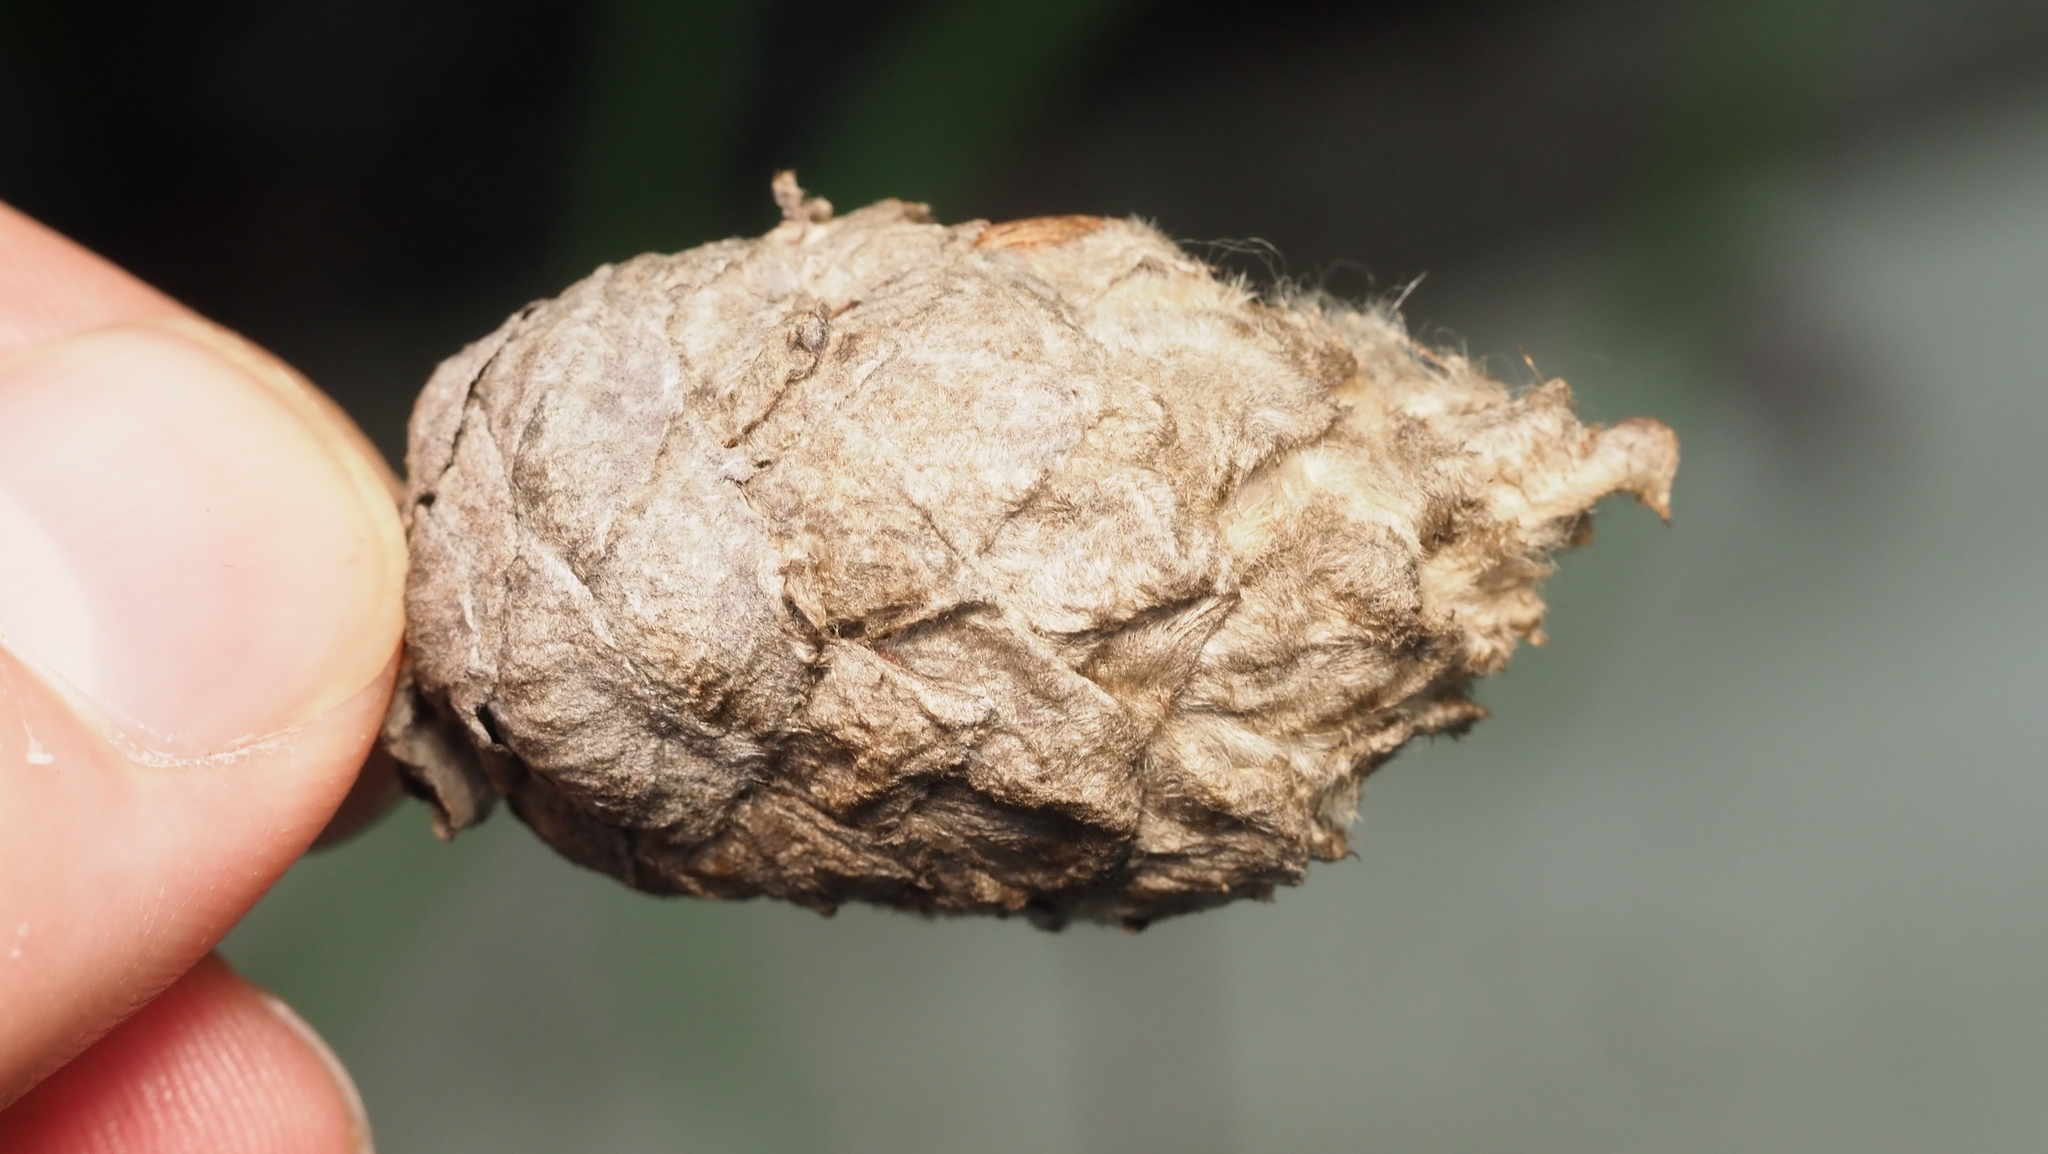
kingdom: Animalia
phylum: Arthropoda
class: Insecta
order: Diptera
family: Cecidomyiidae
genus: Rabdophaga
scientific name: Rabdophaga strobiloides
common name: Willow pinecone gall midge
